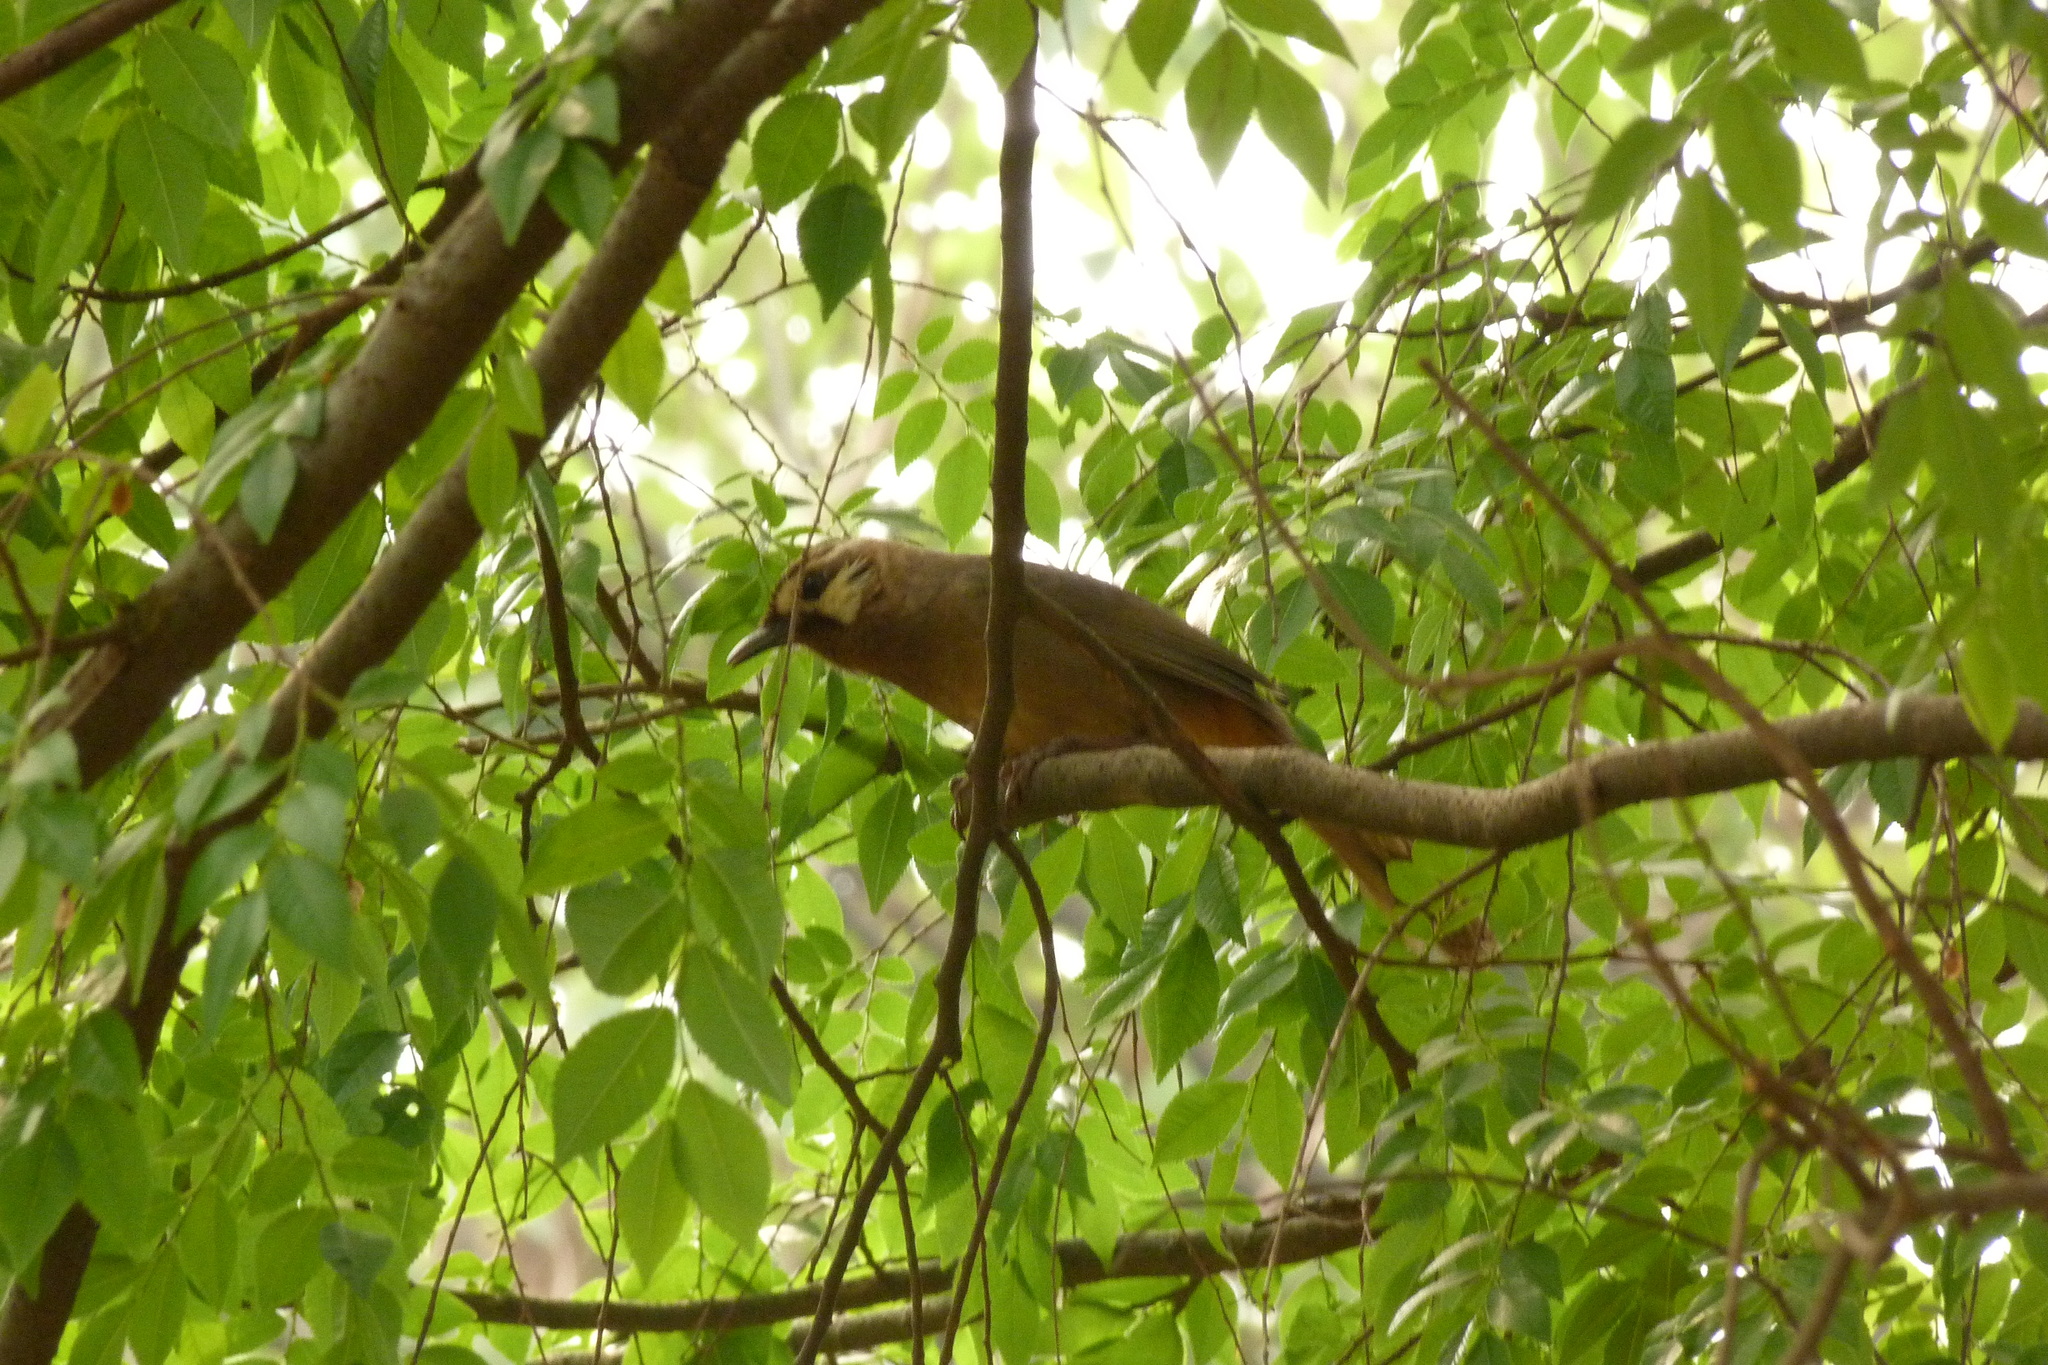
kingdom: Animalia
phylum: Chordata
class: Aves
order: Passeriformes
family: Leiothrichidae
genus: Pterorhinus
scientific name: Pterorhinus sannio
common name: White-browed laughingthrush
